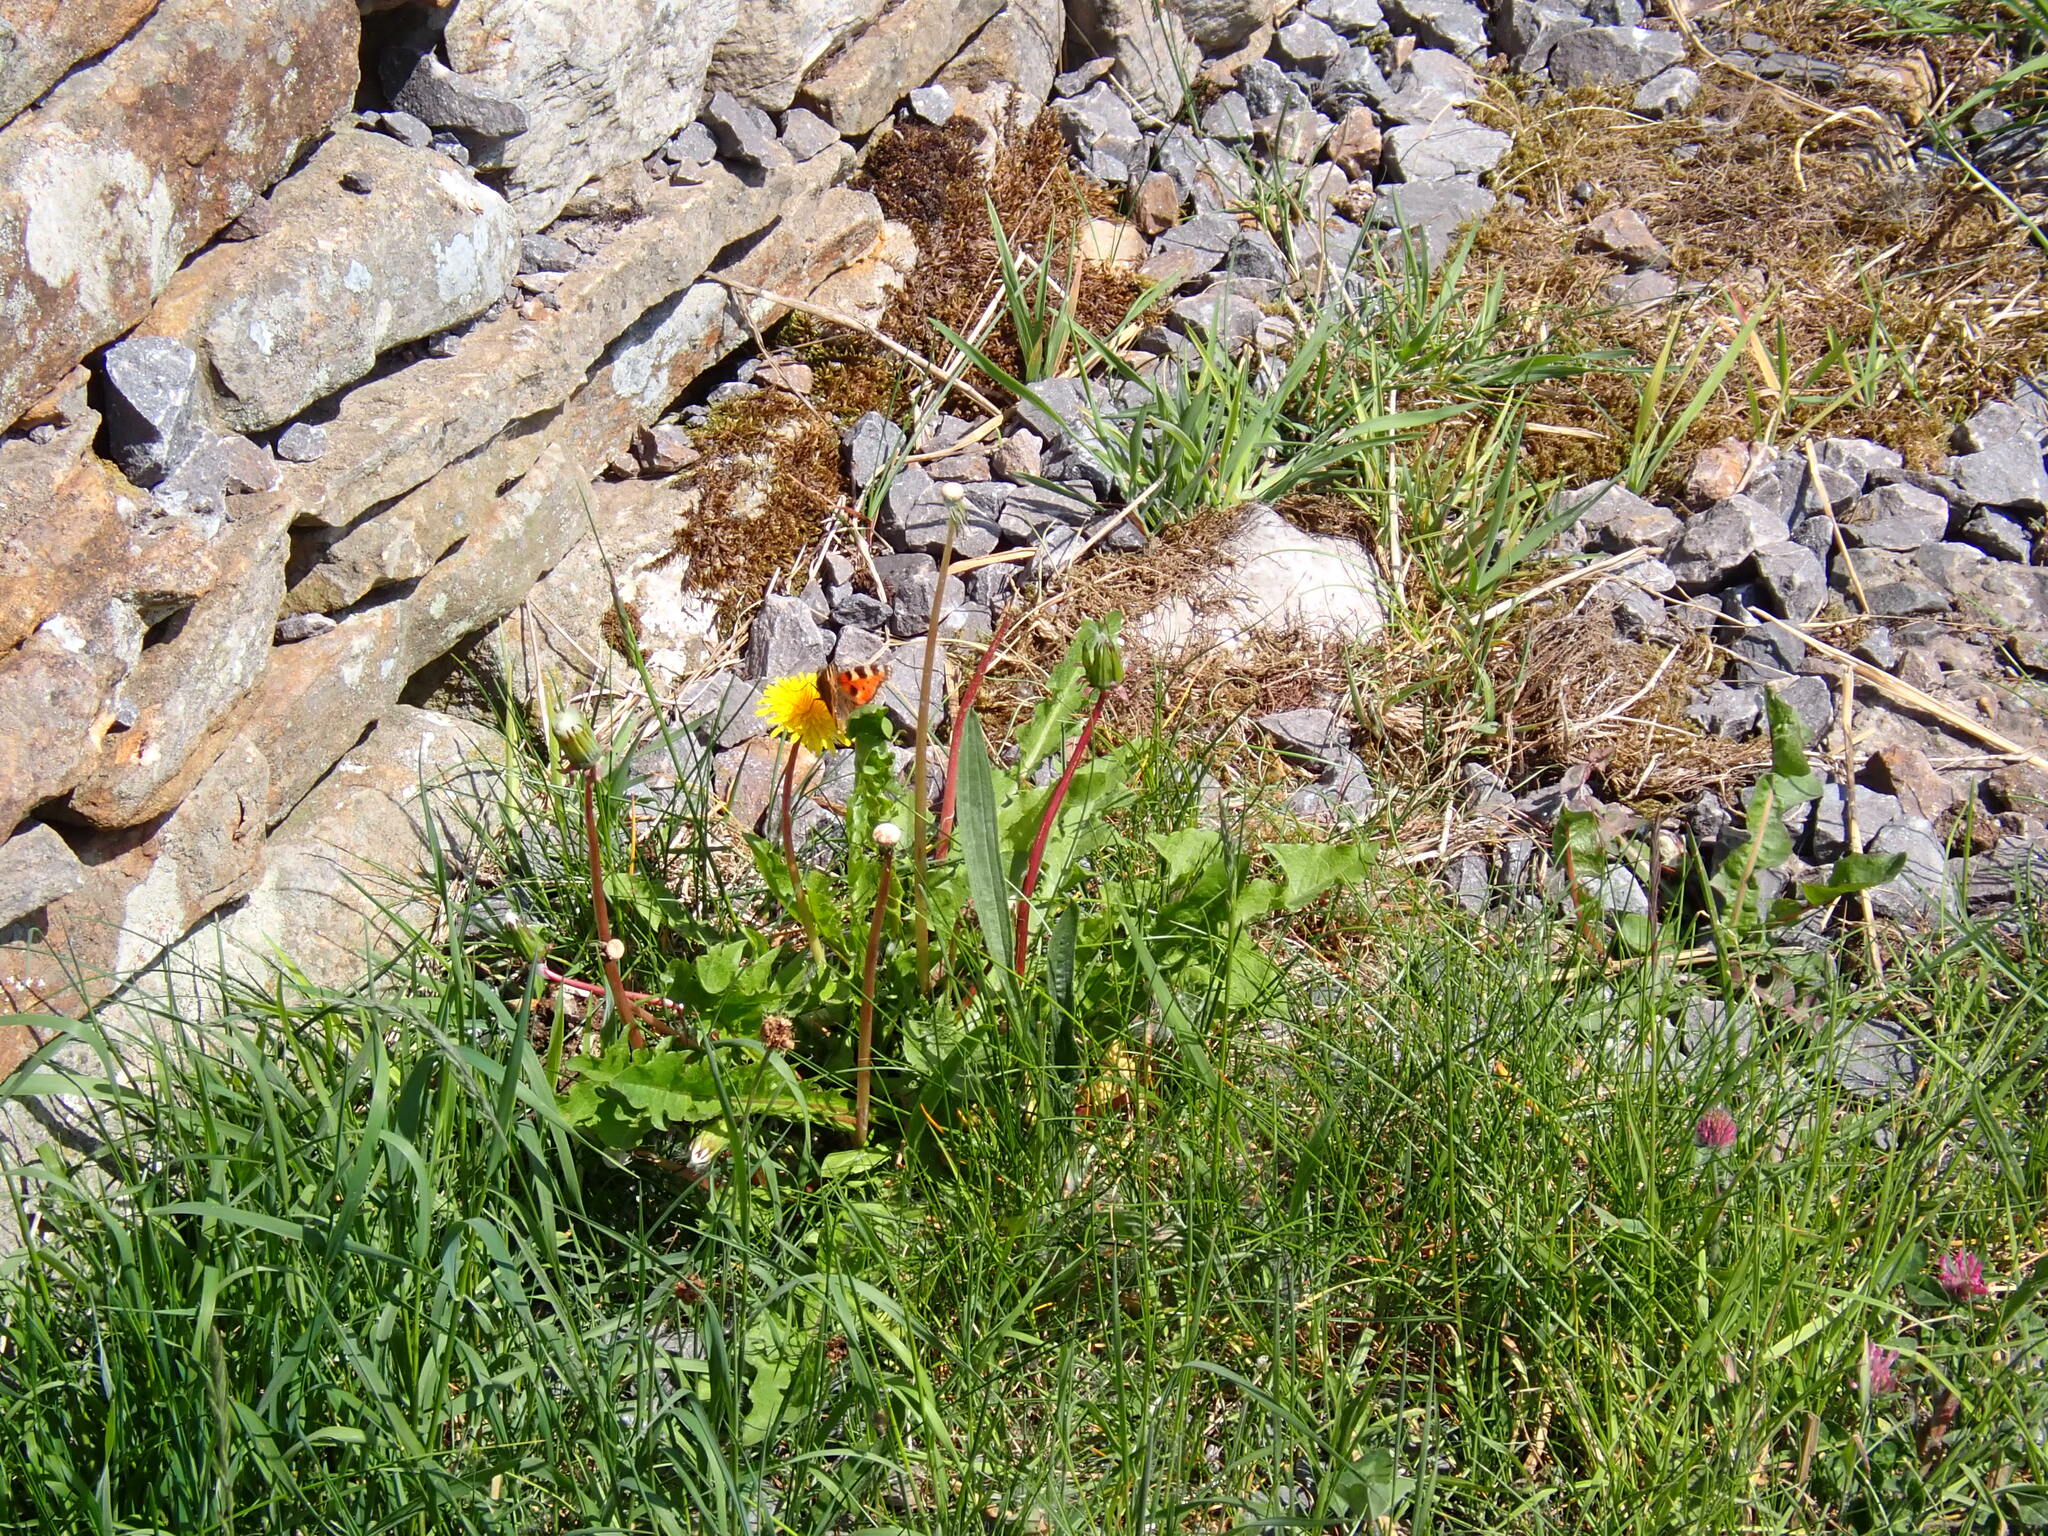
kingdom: Animalia
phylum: Arthropoda
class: Insecta
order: Lepidoptera
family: Nymphalidae
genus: Aglais
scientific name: Aglais urticae
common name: Small tortoiseshell
